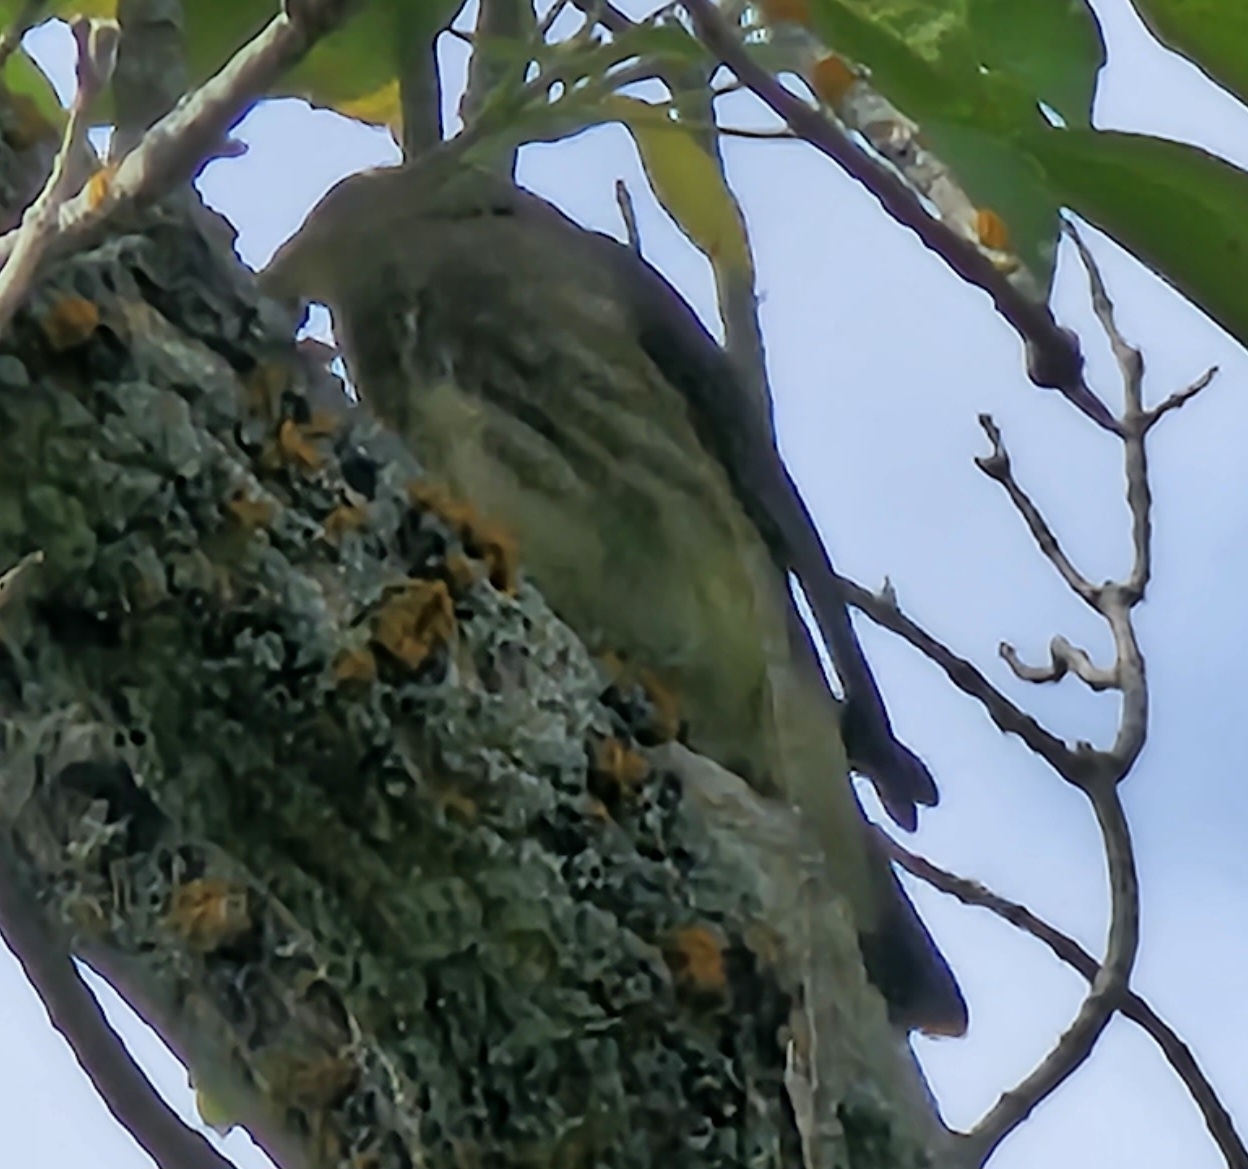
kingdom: Animalia
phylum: Chordata
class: Aves
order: Passeriformes
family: Bombycillidae
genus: Bombycilla
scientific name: Bombycilla cedrorum
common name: Cedar waxwing
